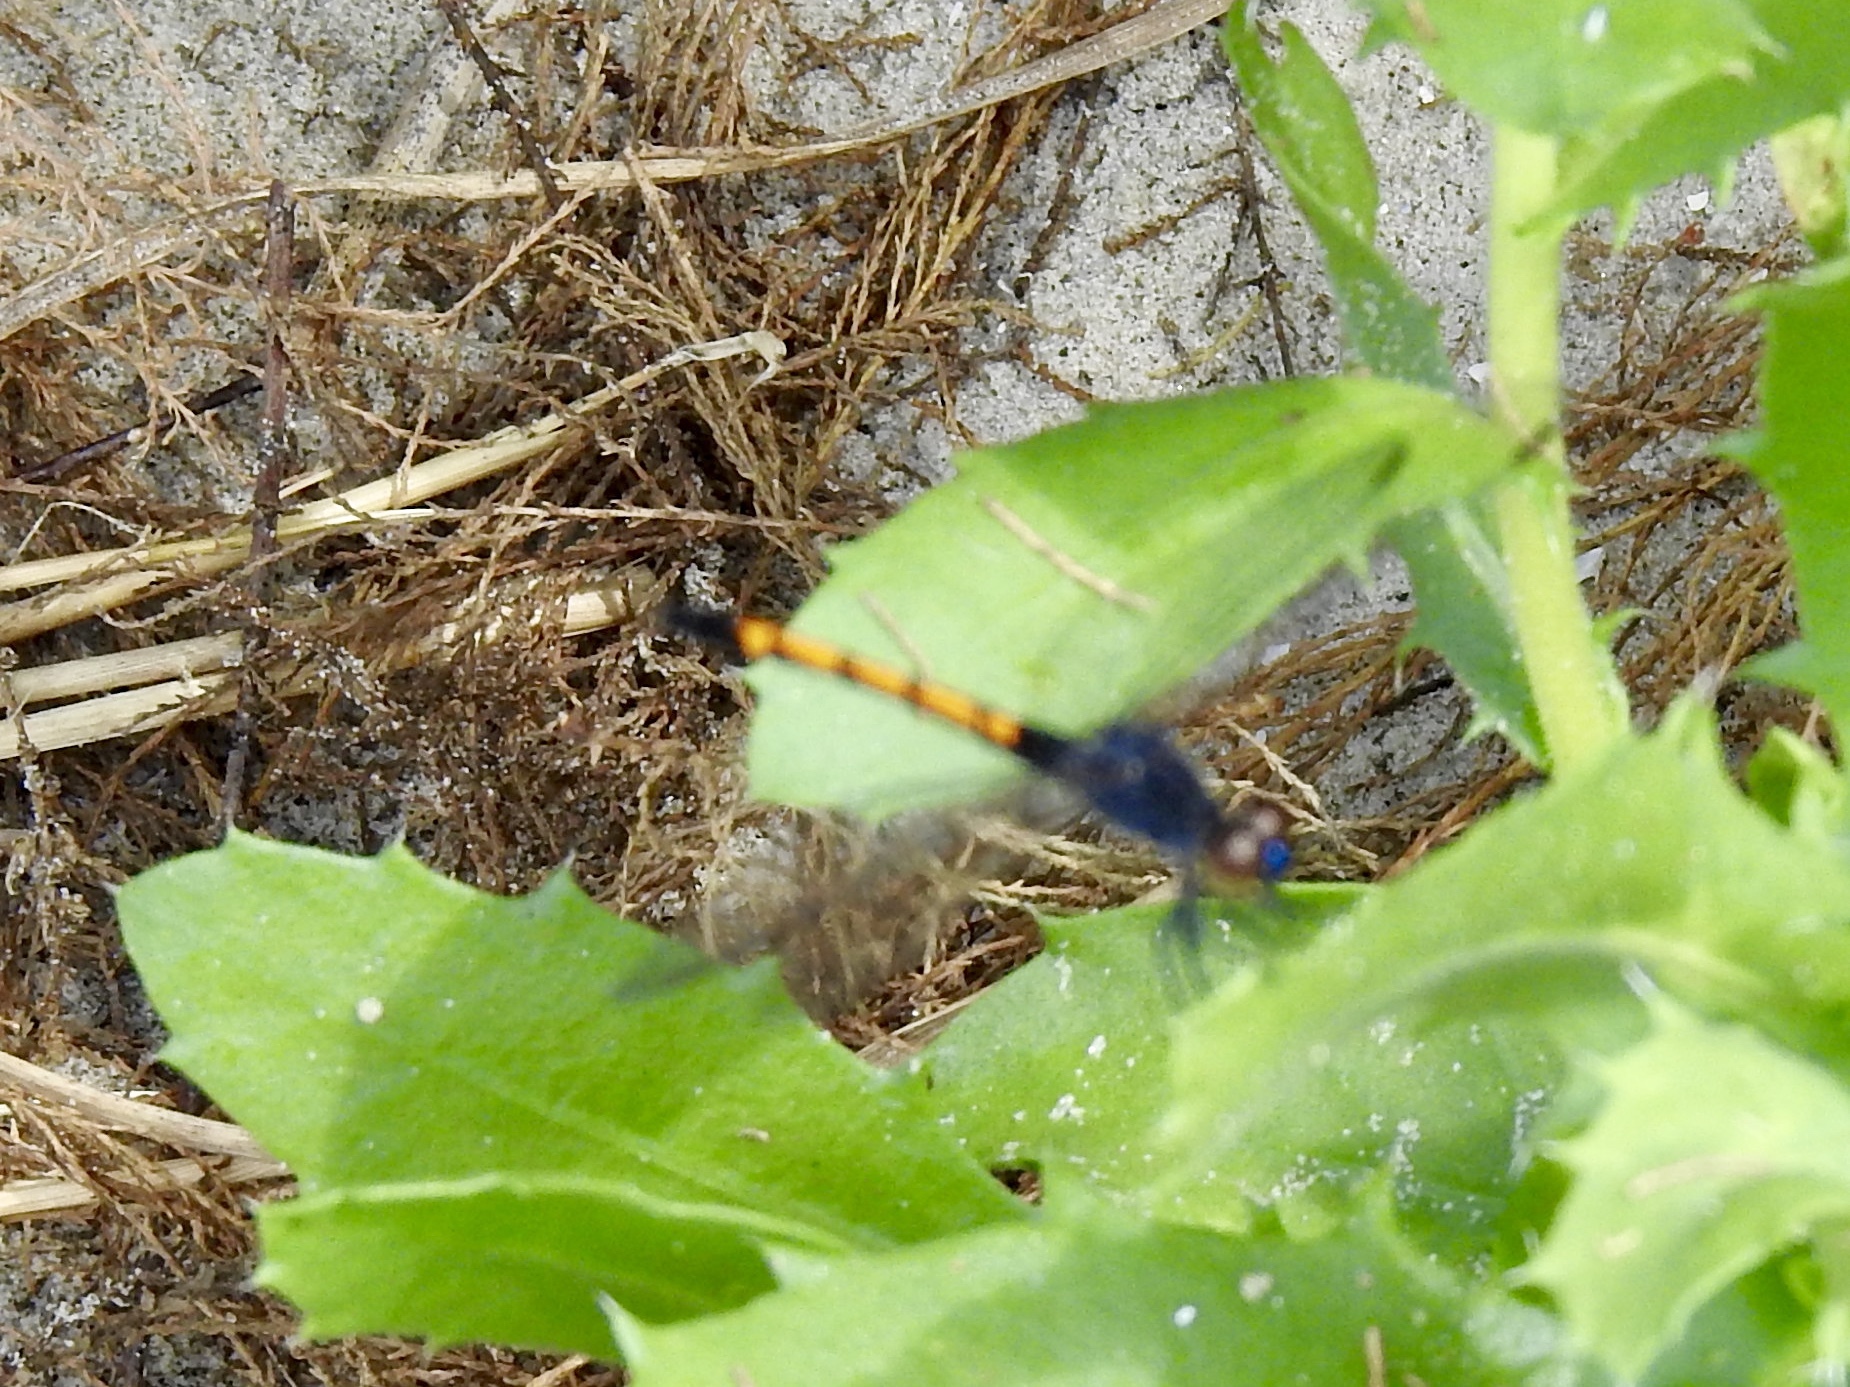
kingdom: Animalia
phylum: Arthropoda
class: Insecta
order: Odonata
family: Libellulidae
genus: Erythrodiplax
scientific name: Erythrodiplax berenice
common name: Seaside dragonlet
